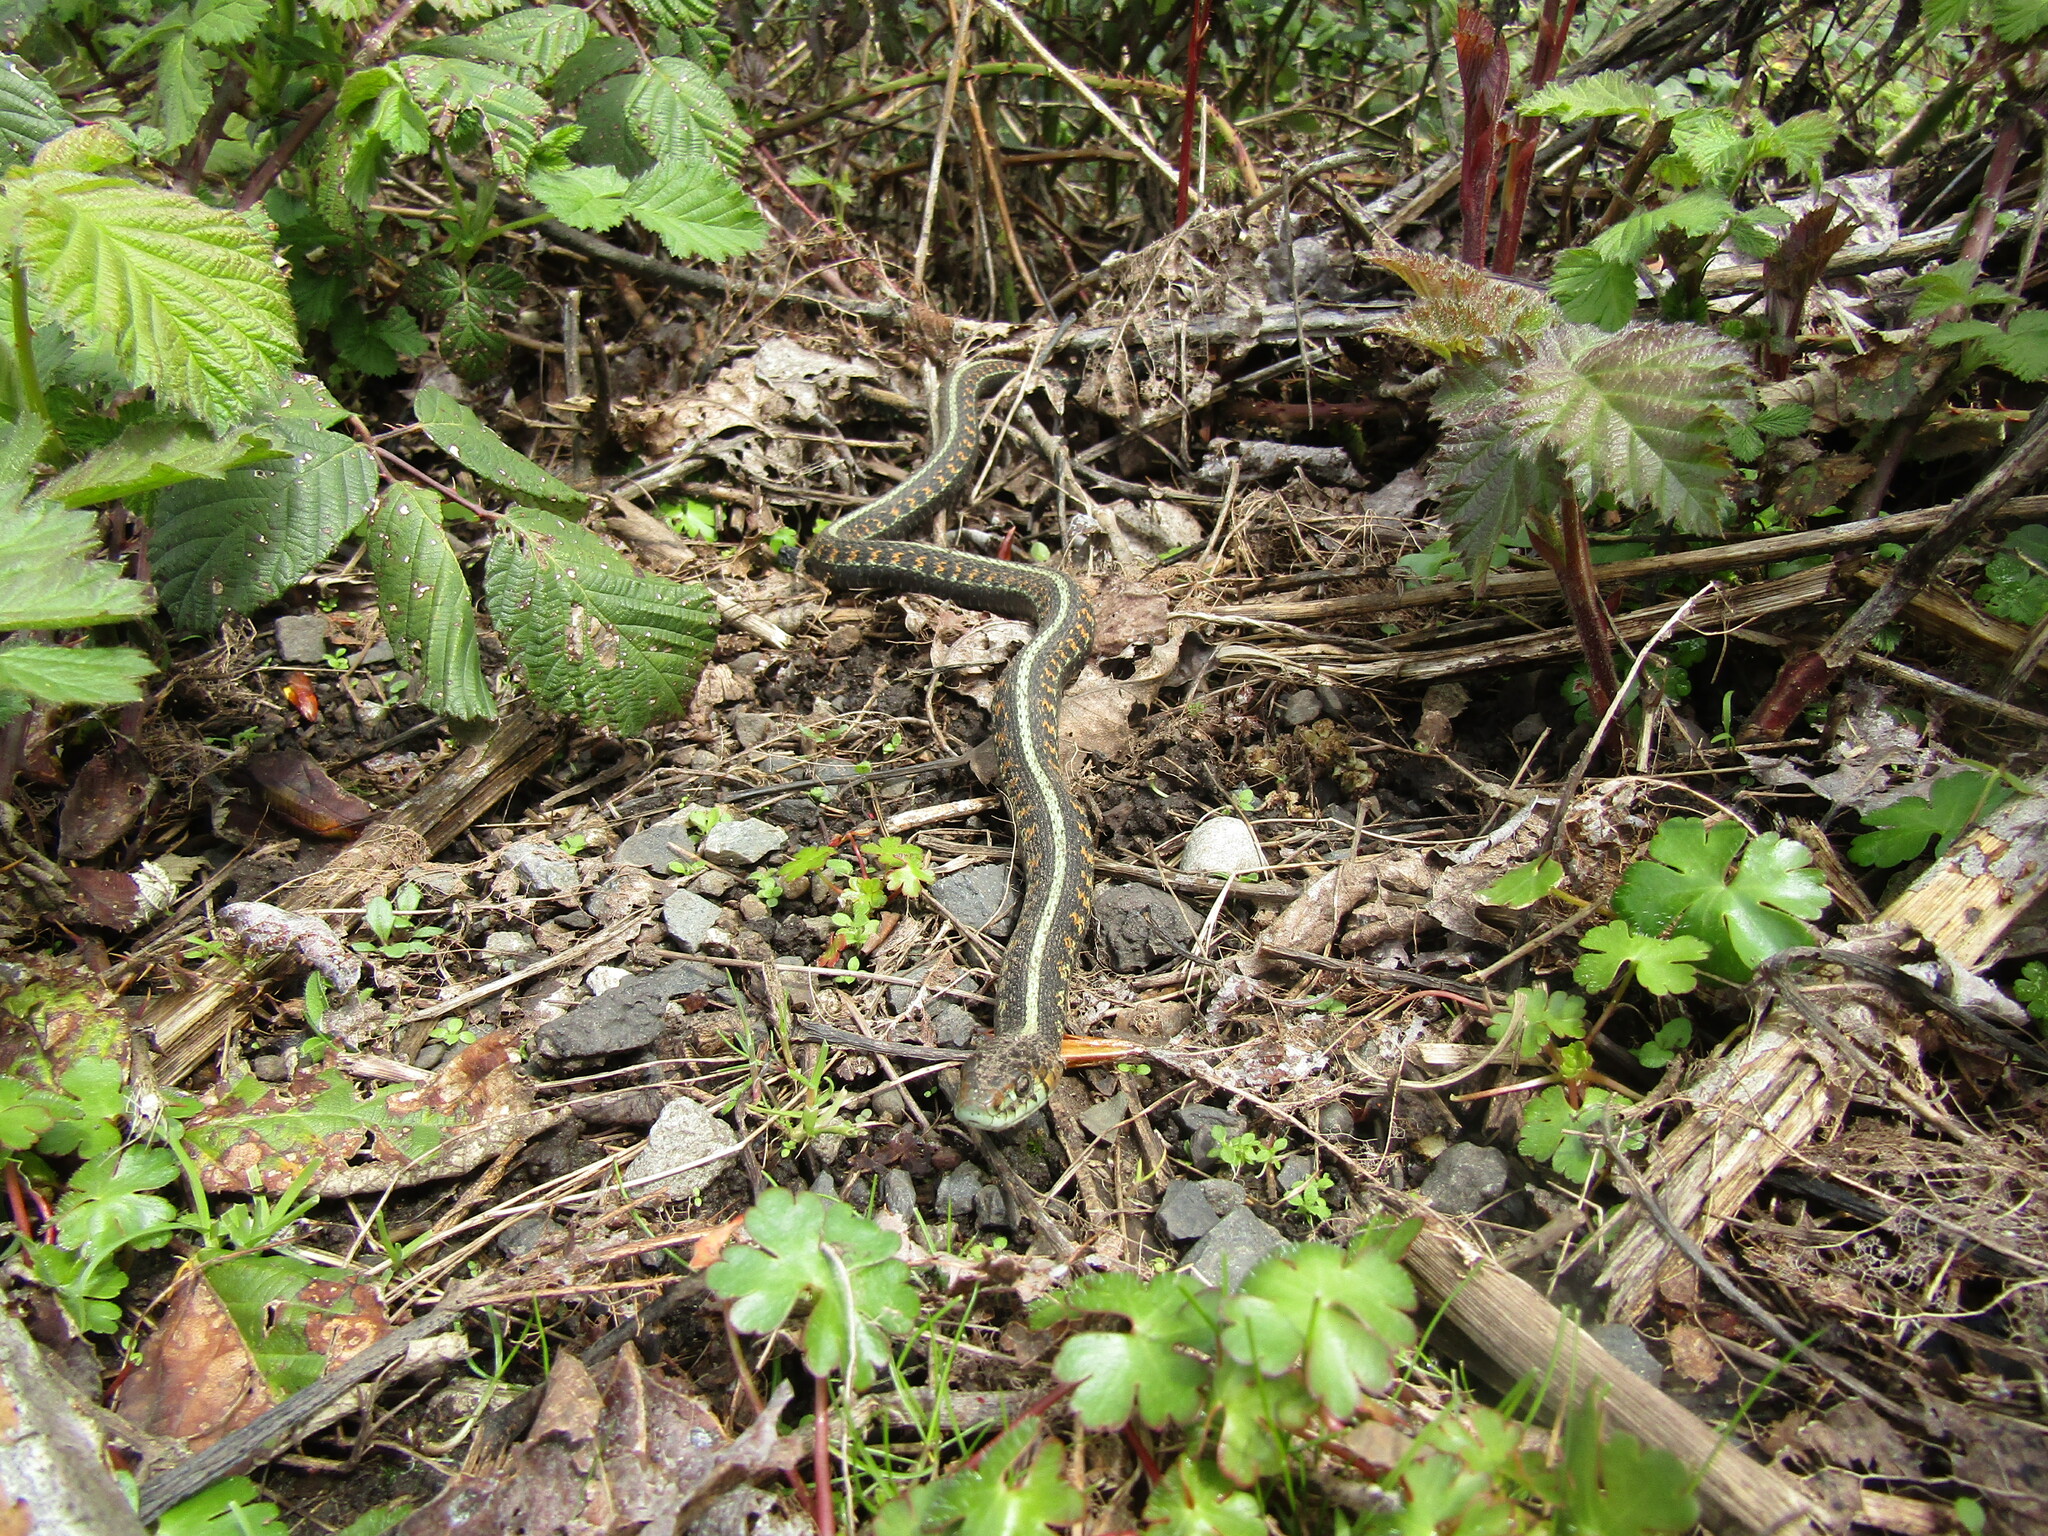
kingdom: Animalia
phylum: Chordata
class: Squamata
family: Colubridae
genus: Thamnophis
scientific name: Thamnophis sirtalis
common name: Common garter snake
